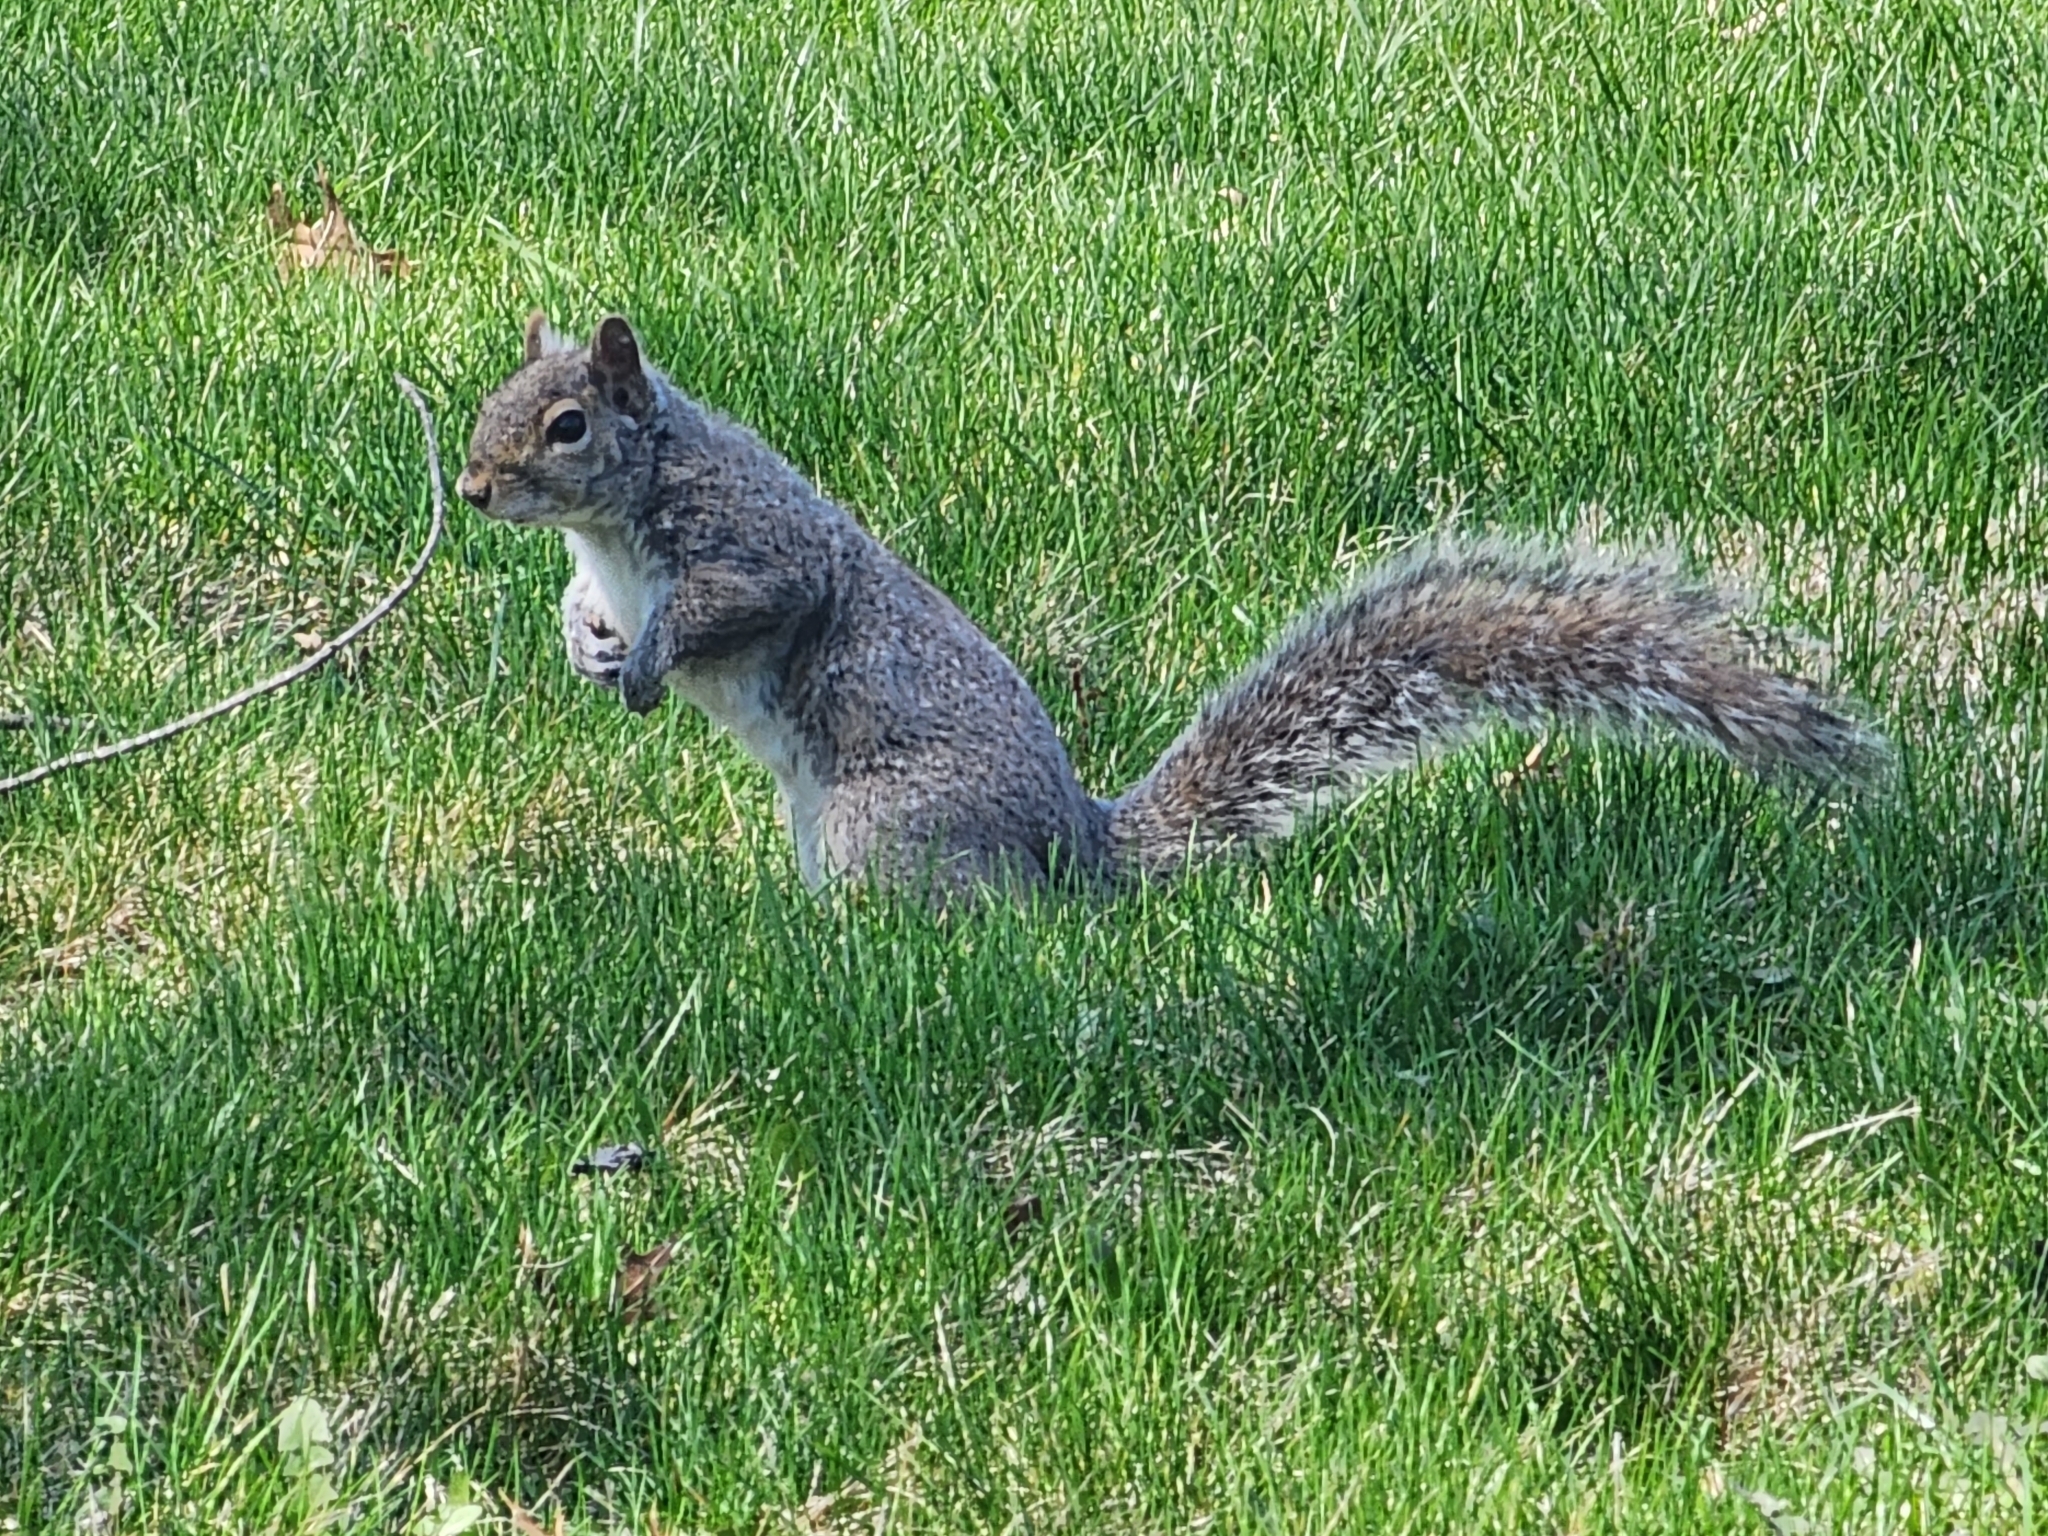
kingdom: Animalia
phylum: Chordata
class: Mammalia
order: Rodentia
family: Sciuridae
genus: Sciurus
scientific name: Sciurus carolinensis
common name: Eastern gray squirrel
